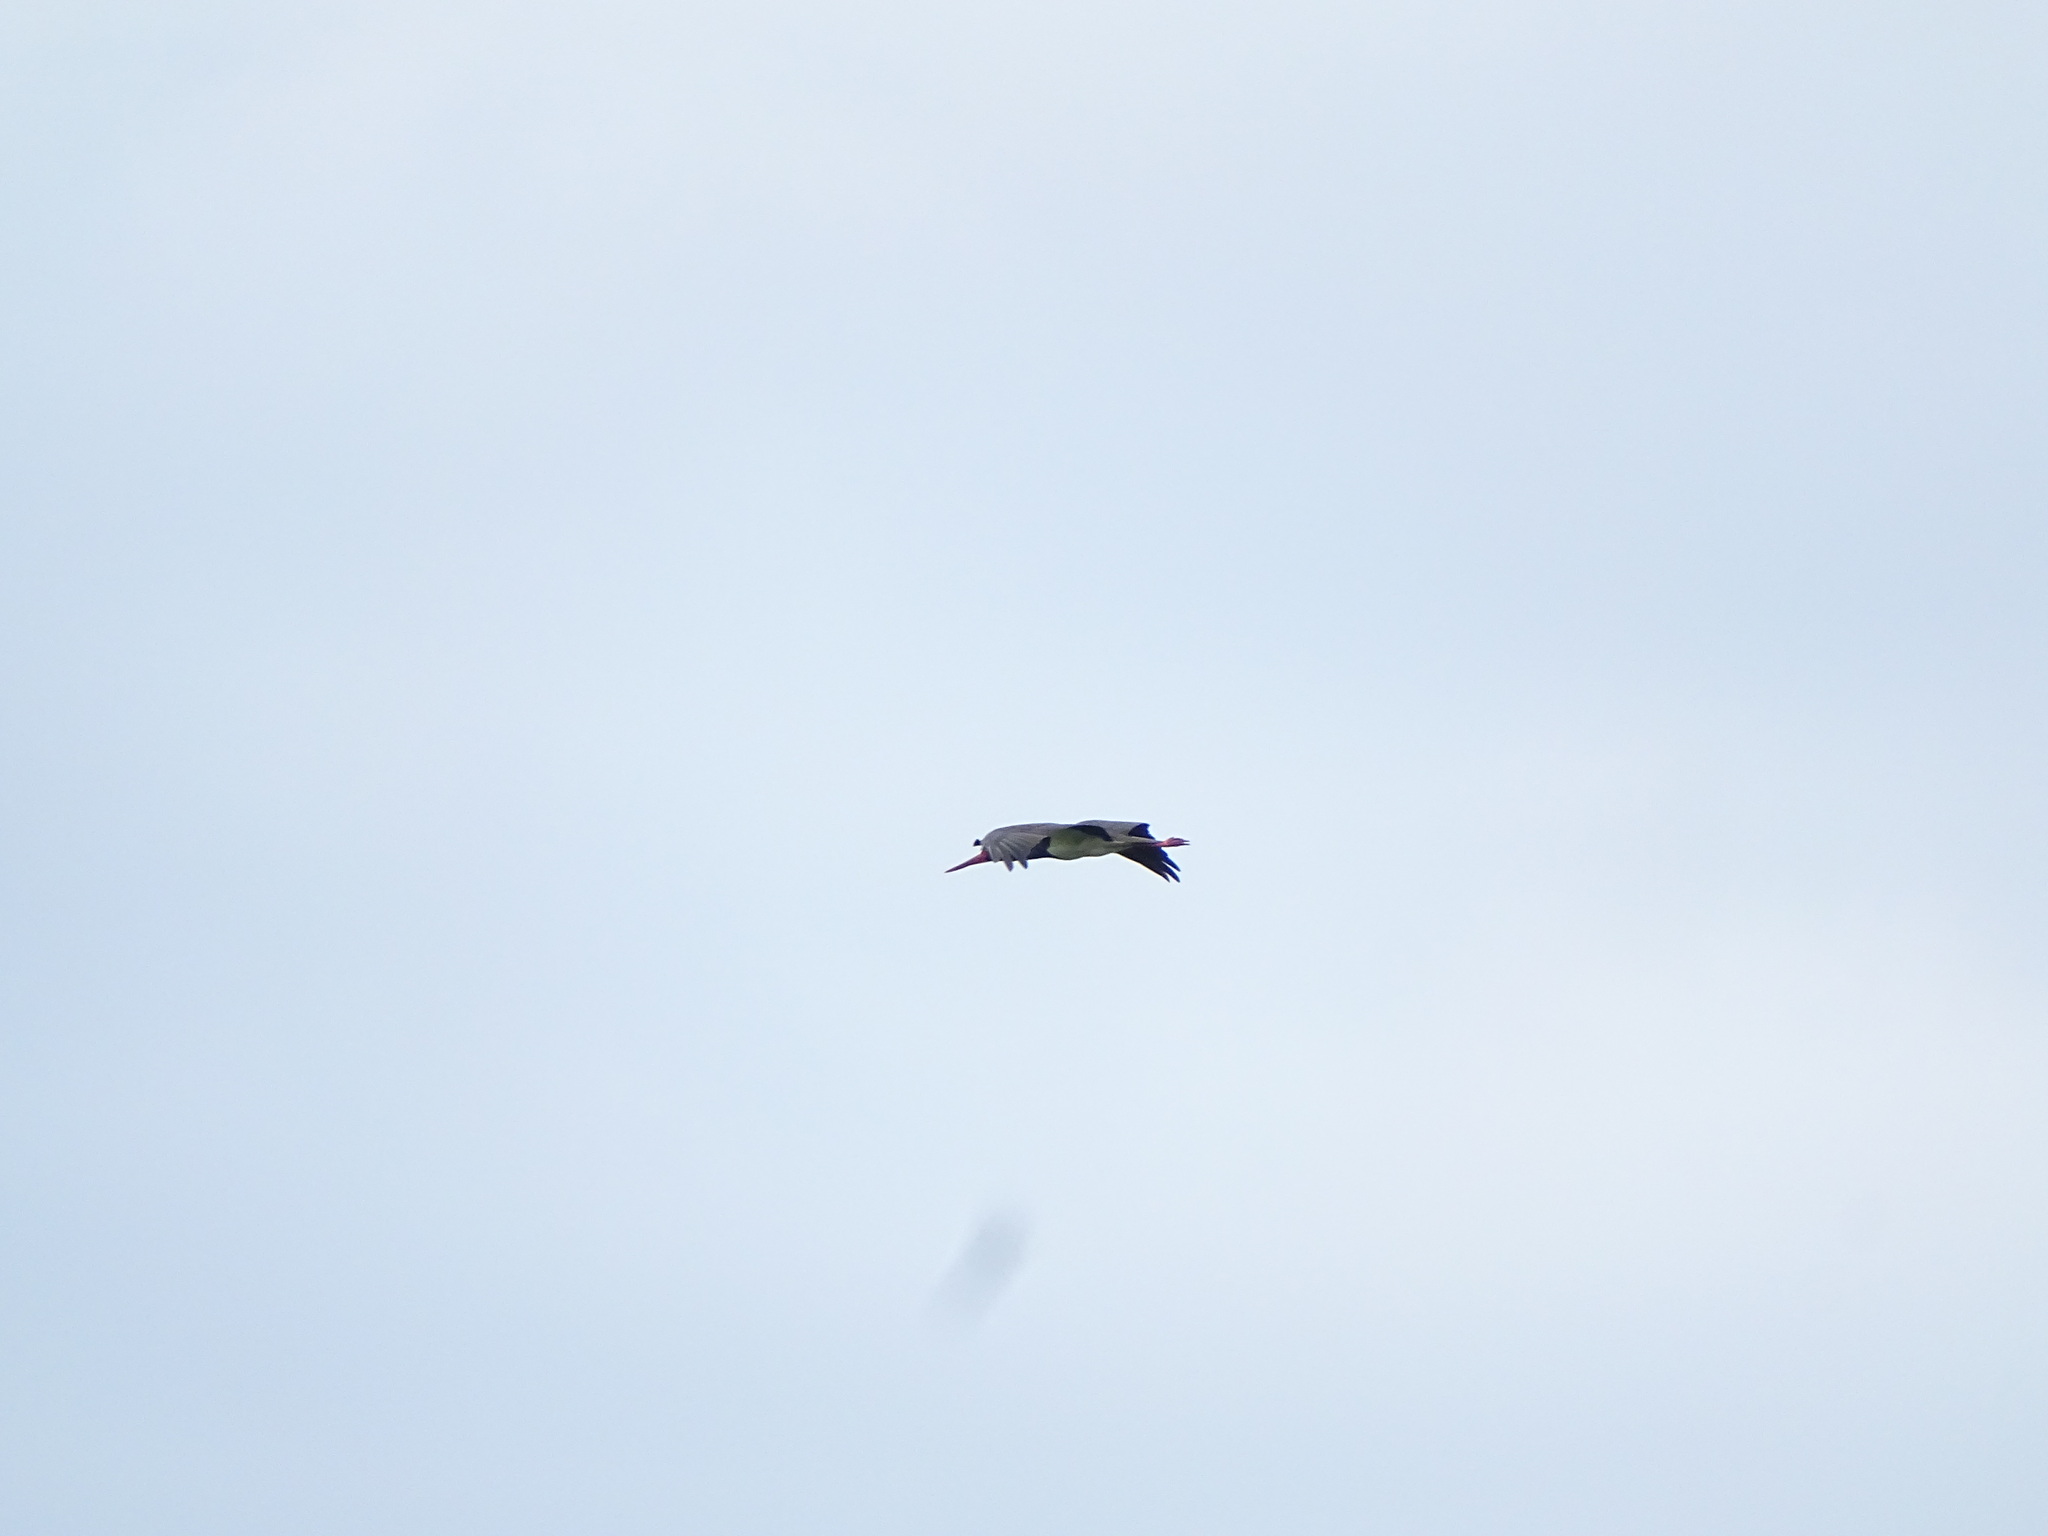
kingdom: Animalia
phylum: Chordata
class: Aves
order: Ciconiiformes
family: Ciconiidae
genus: Ciconia
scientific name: Ciconia nigra
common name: Black stork
